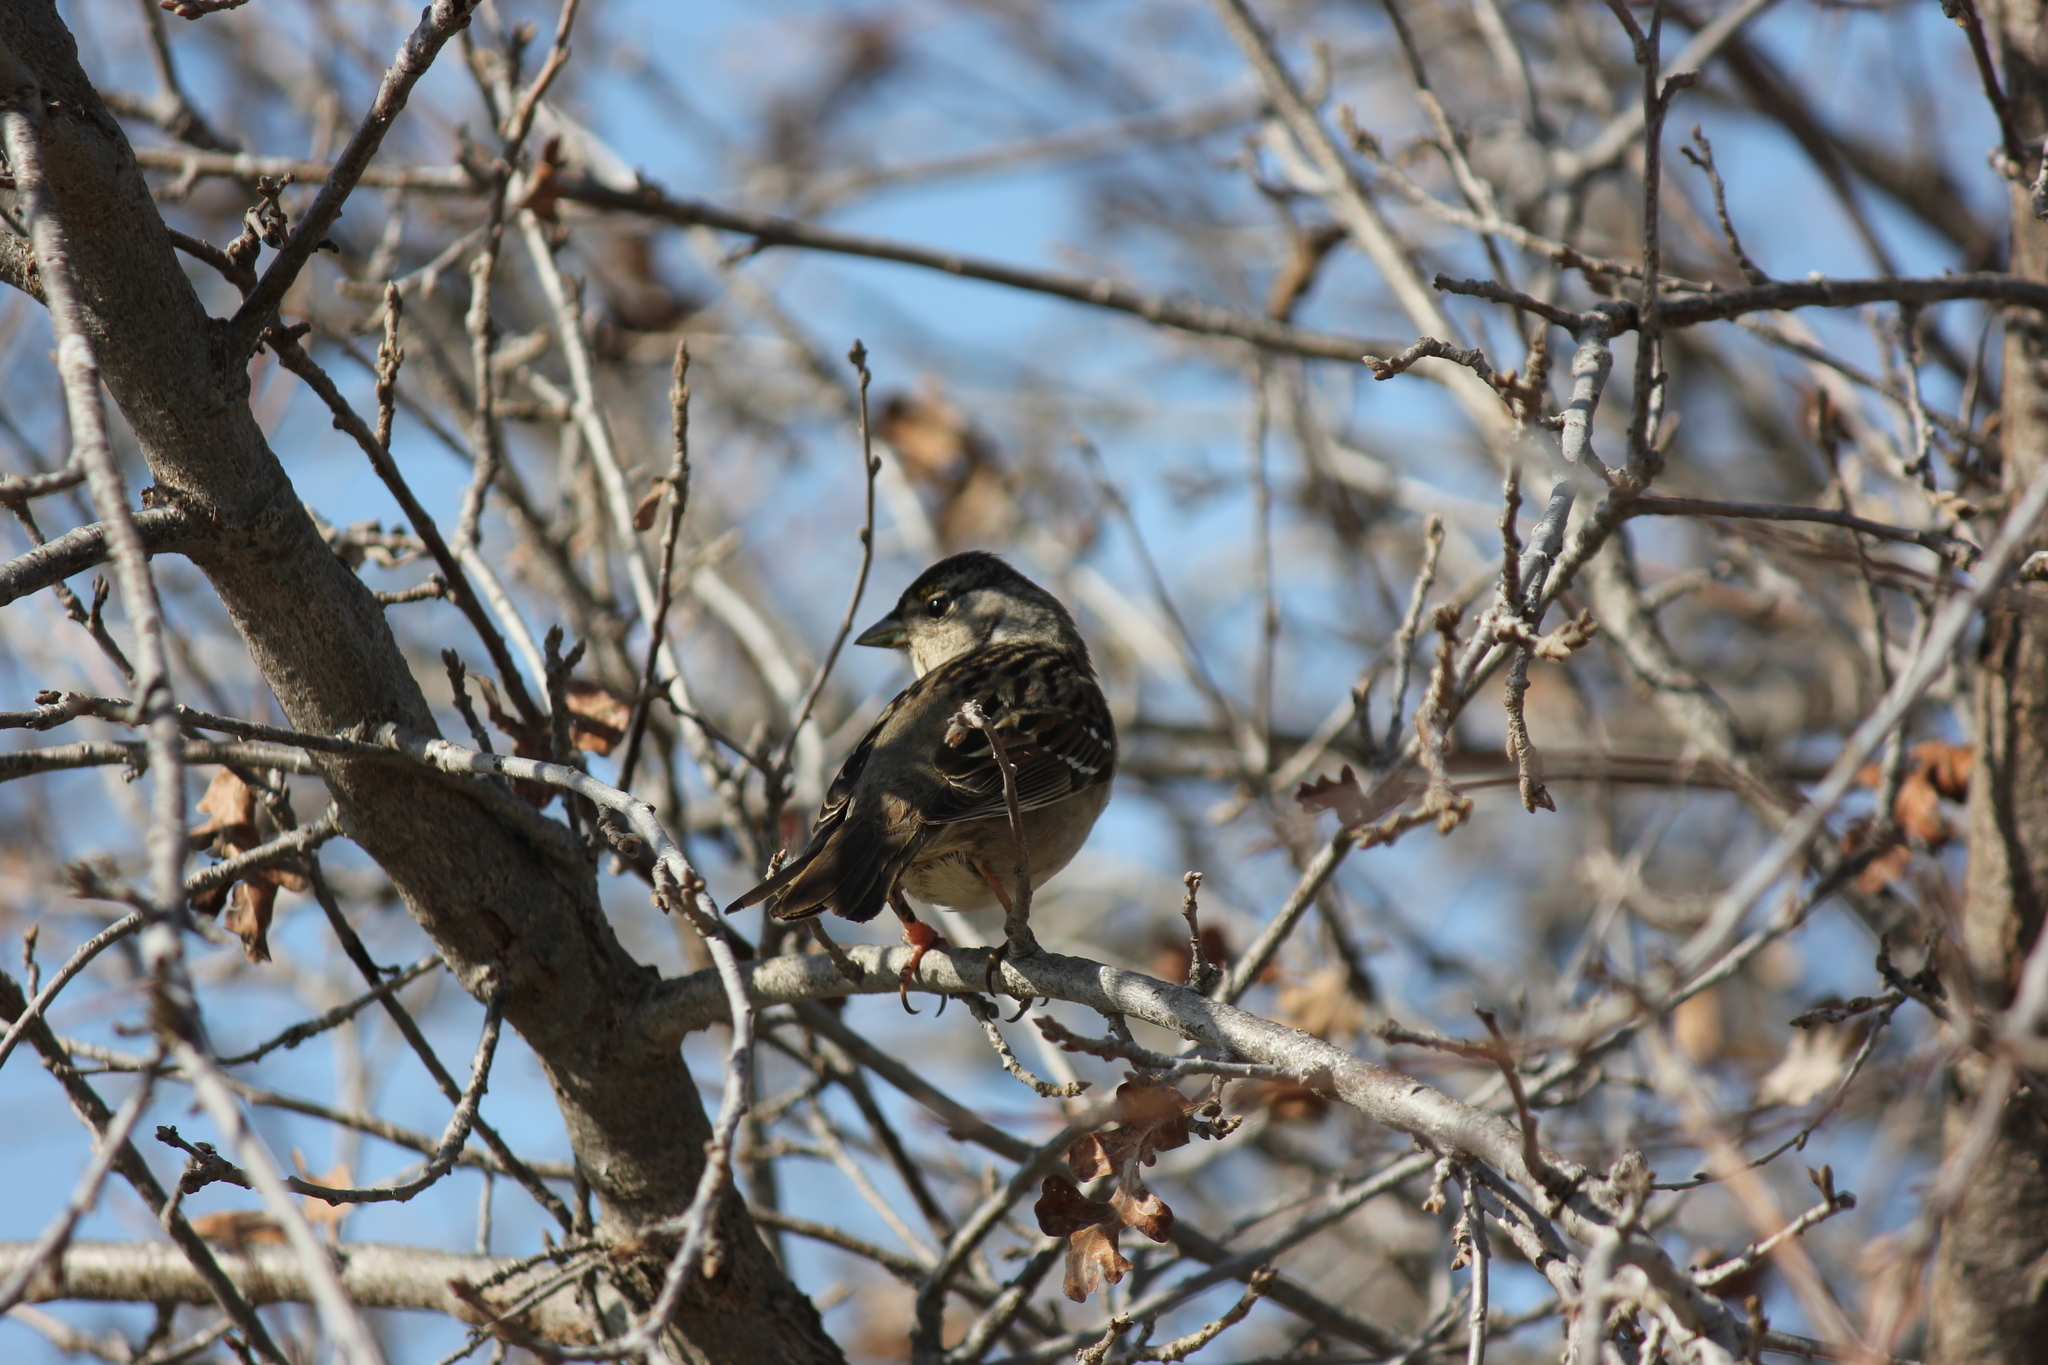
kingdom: Animalia
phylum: Chordata
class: Aves
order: Passeriformes
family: Passerellidae
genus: Zonotrichia
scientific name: Zonotrichia atricapilla
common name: Golden-crowned sparrow
